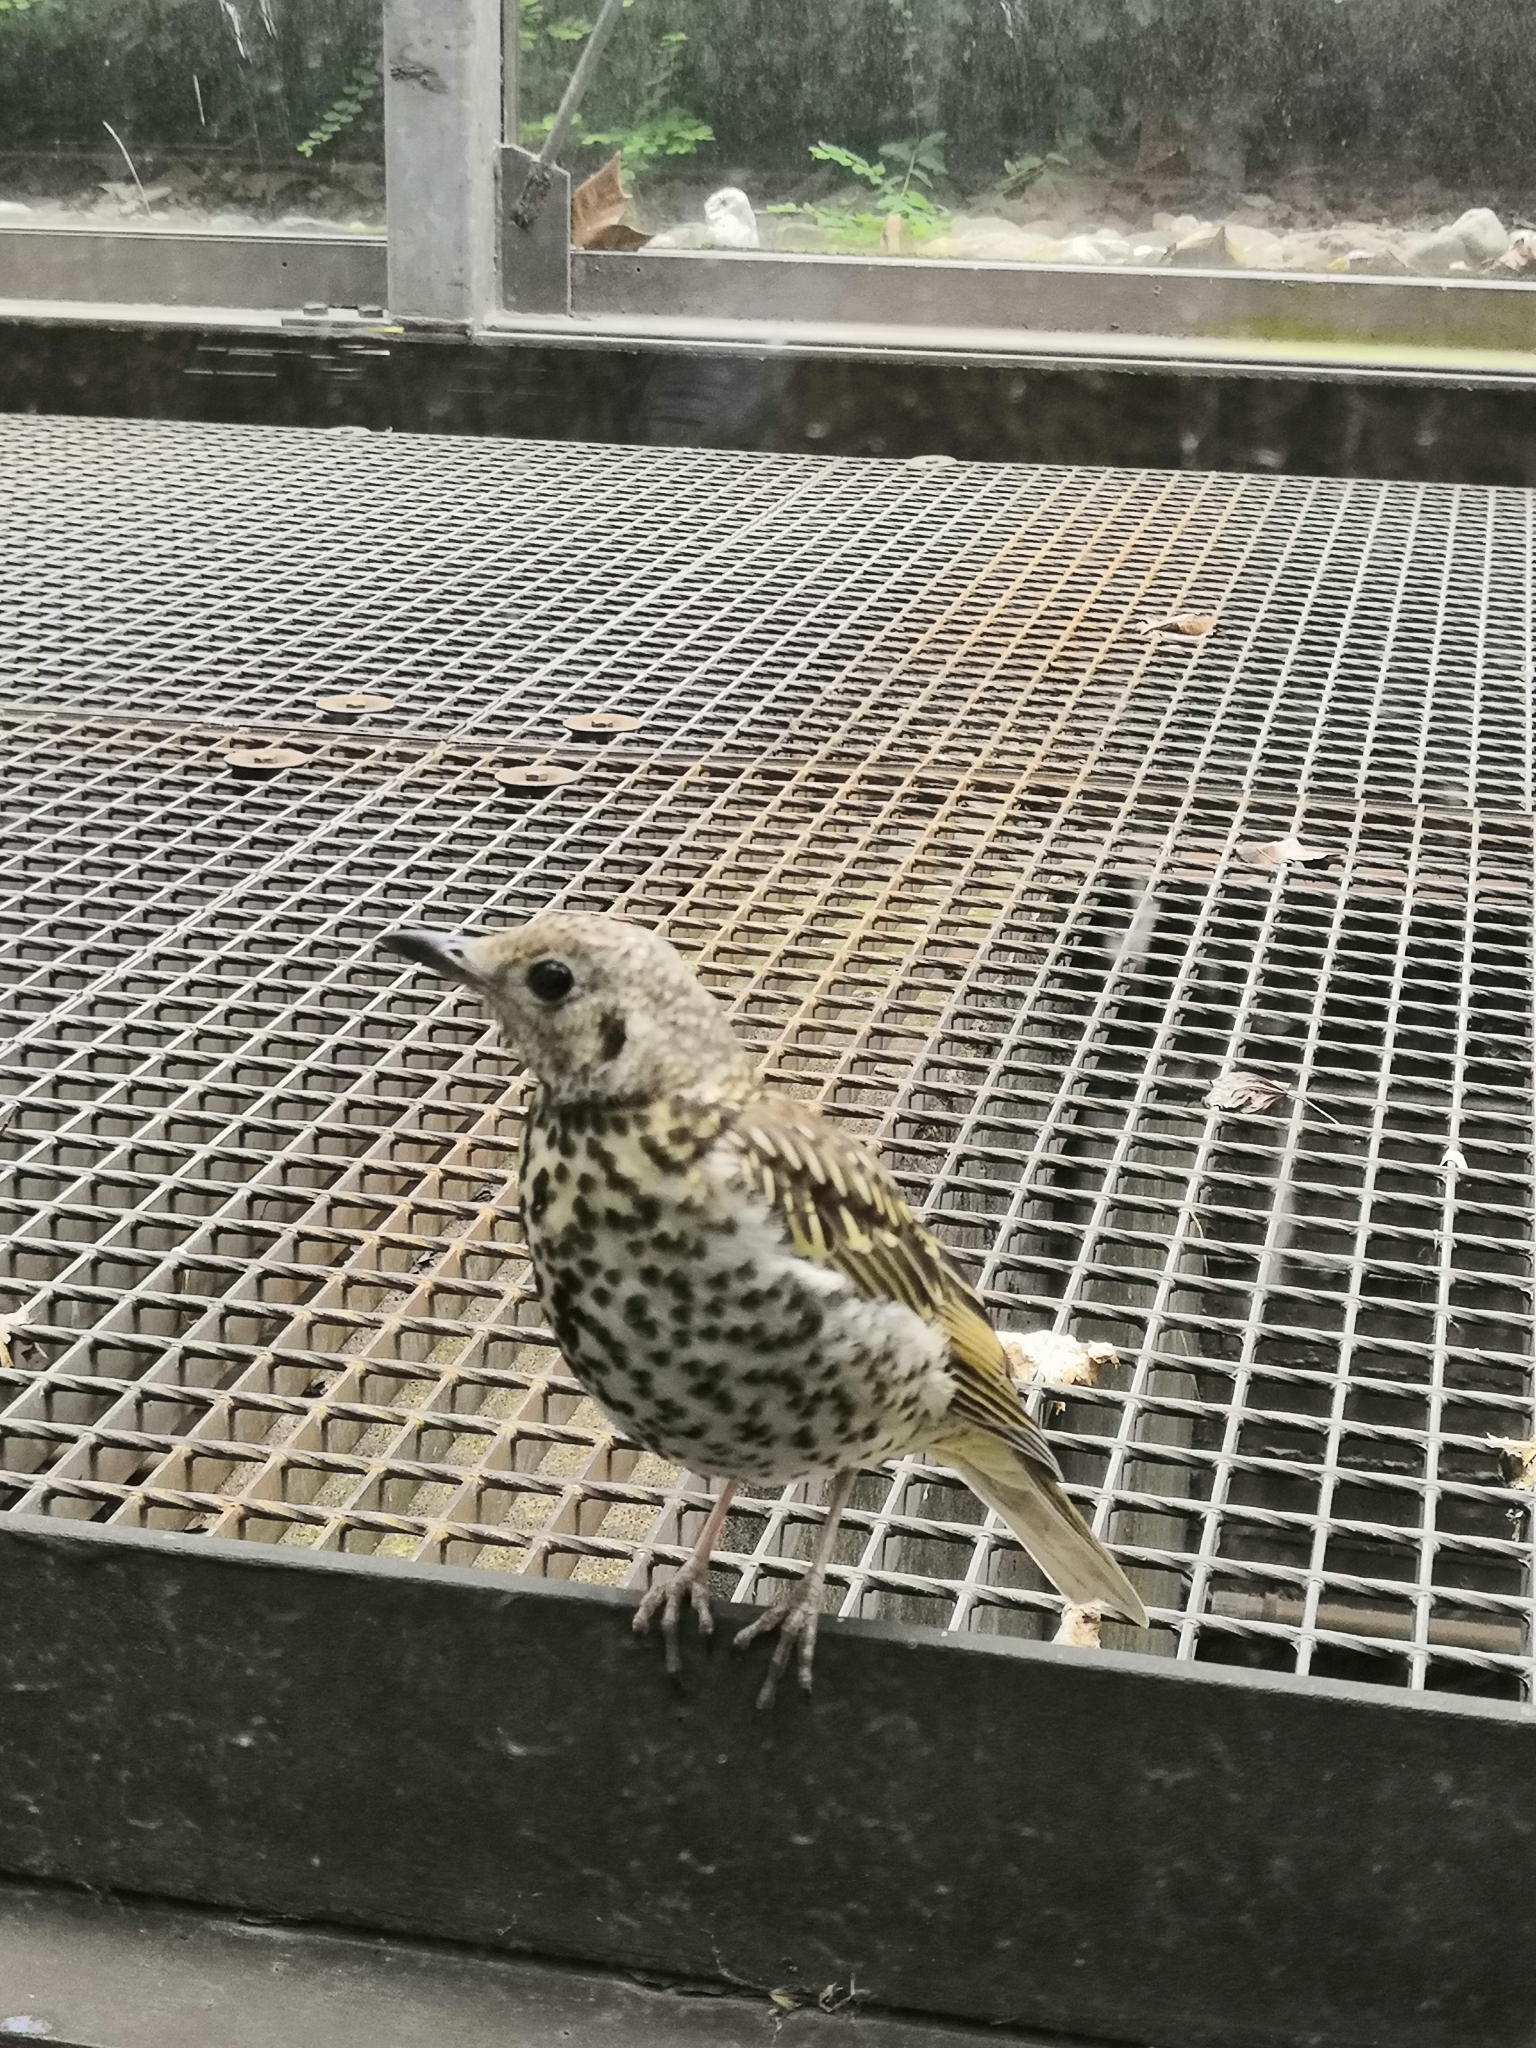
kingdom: Animalia
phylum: Chordata
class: Aves
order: Passeriformes
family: Turdidae
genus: Turdus
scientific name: Turdus viscivorus
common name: Mistle thrush
